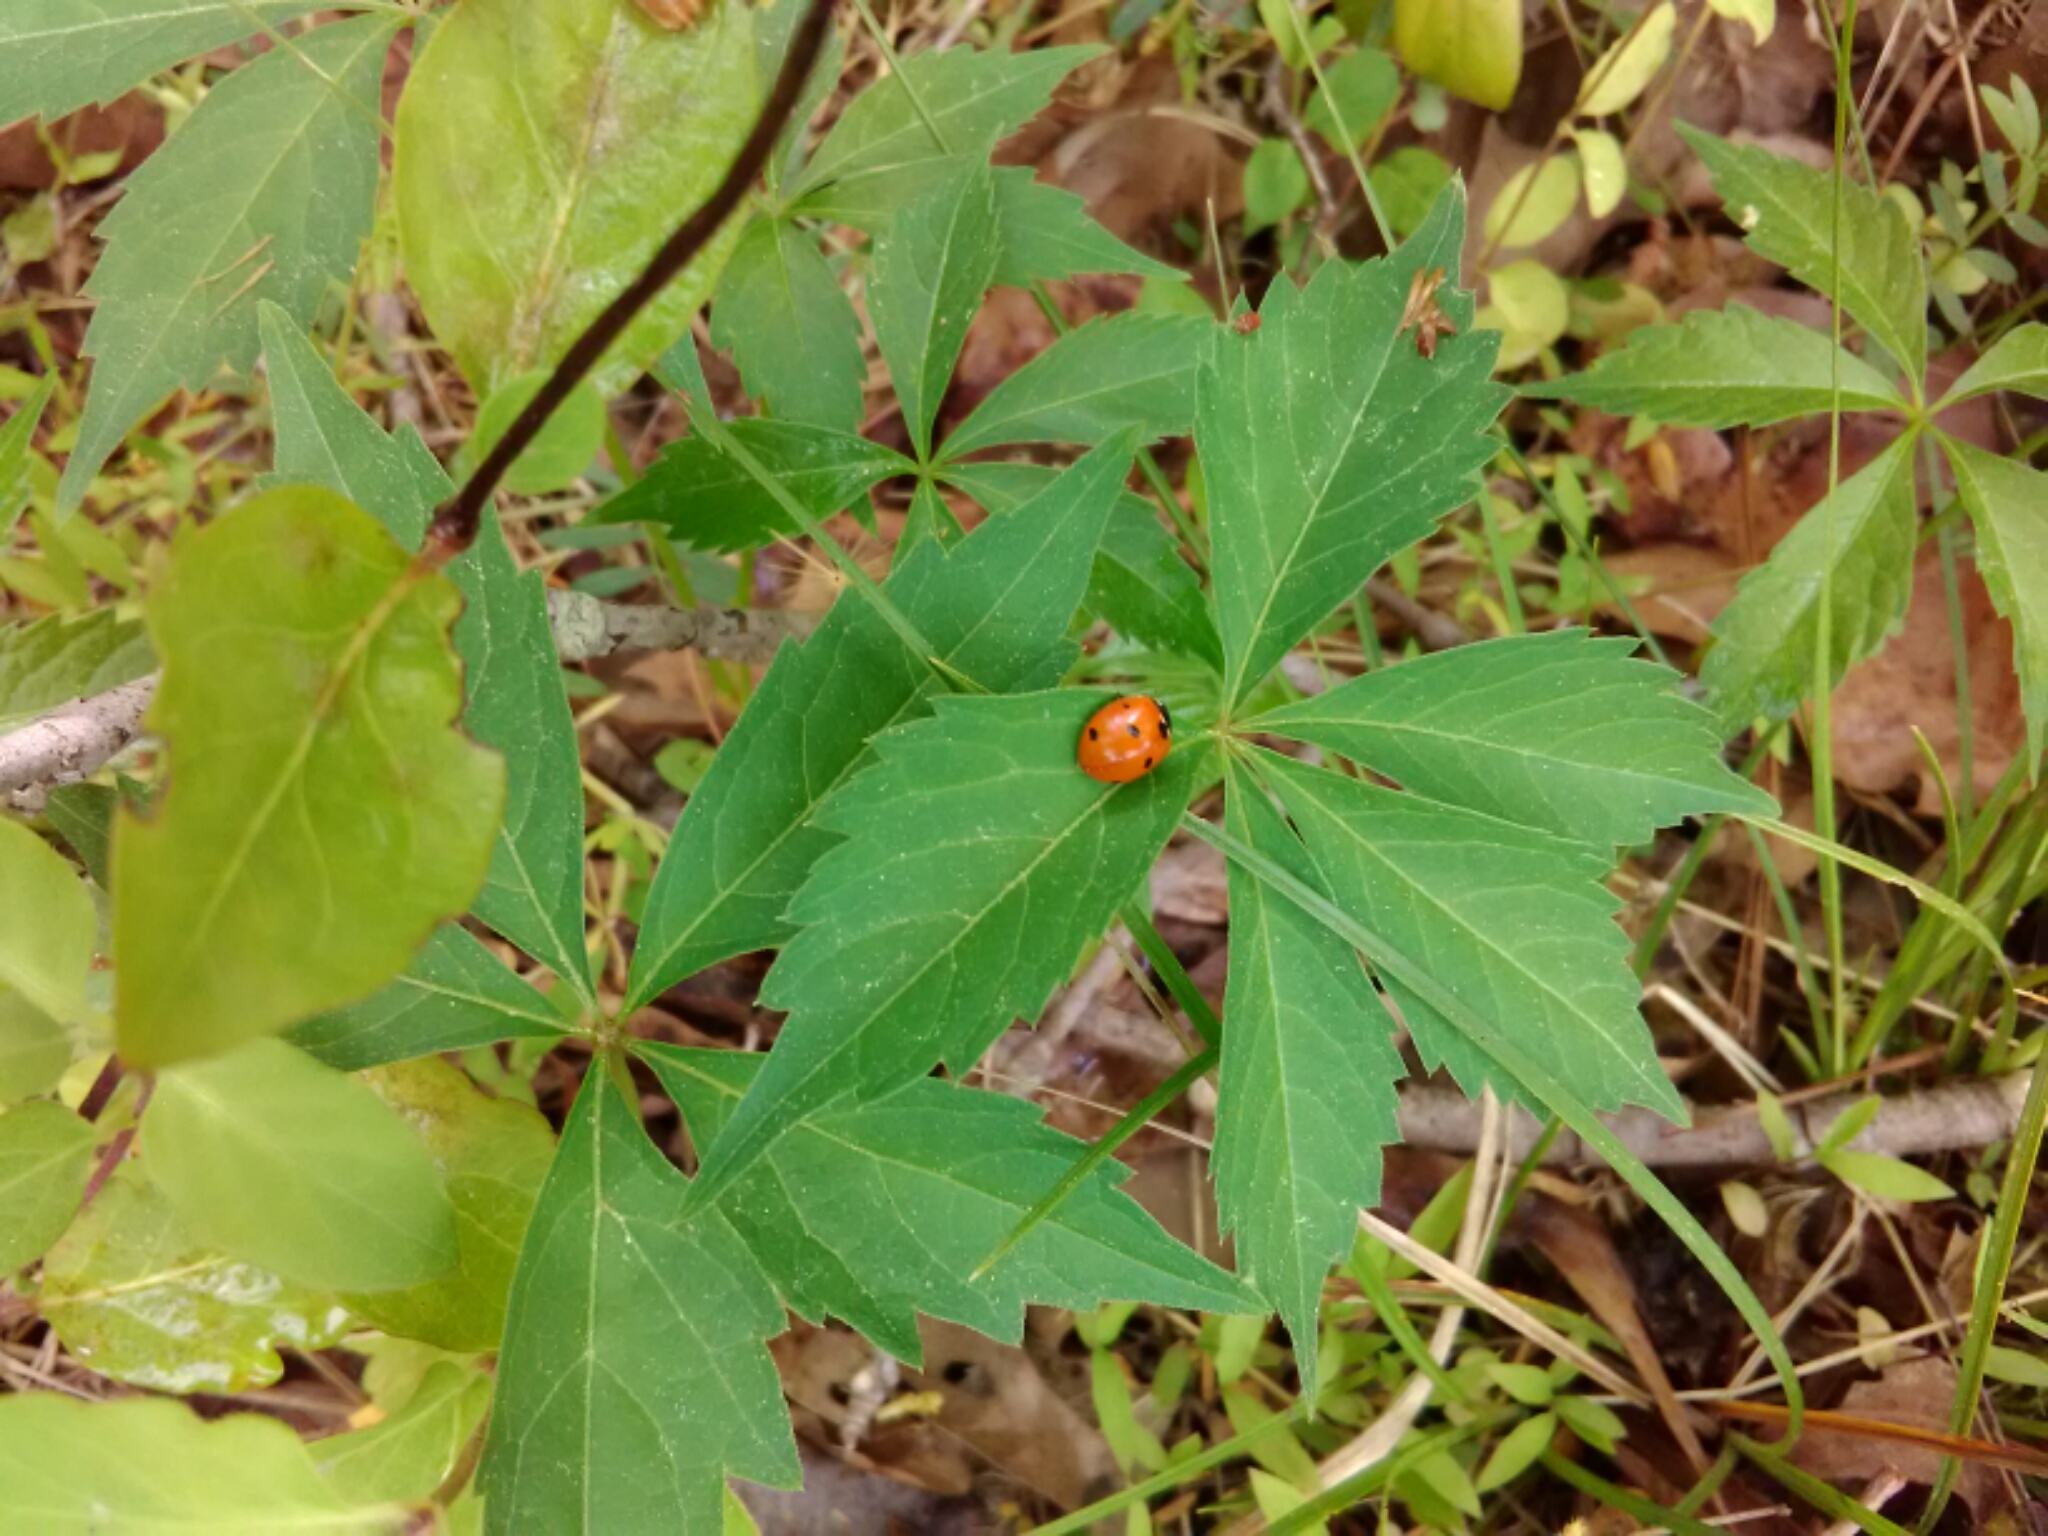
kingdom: Animalia
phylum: Arthropoda
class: Insecta
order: Coleoptera
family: Coccinellidae
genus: Coccinella
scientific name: Coccinella septempunctata
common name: Sevenspotted lady beetle
